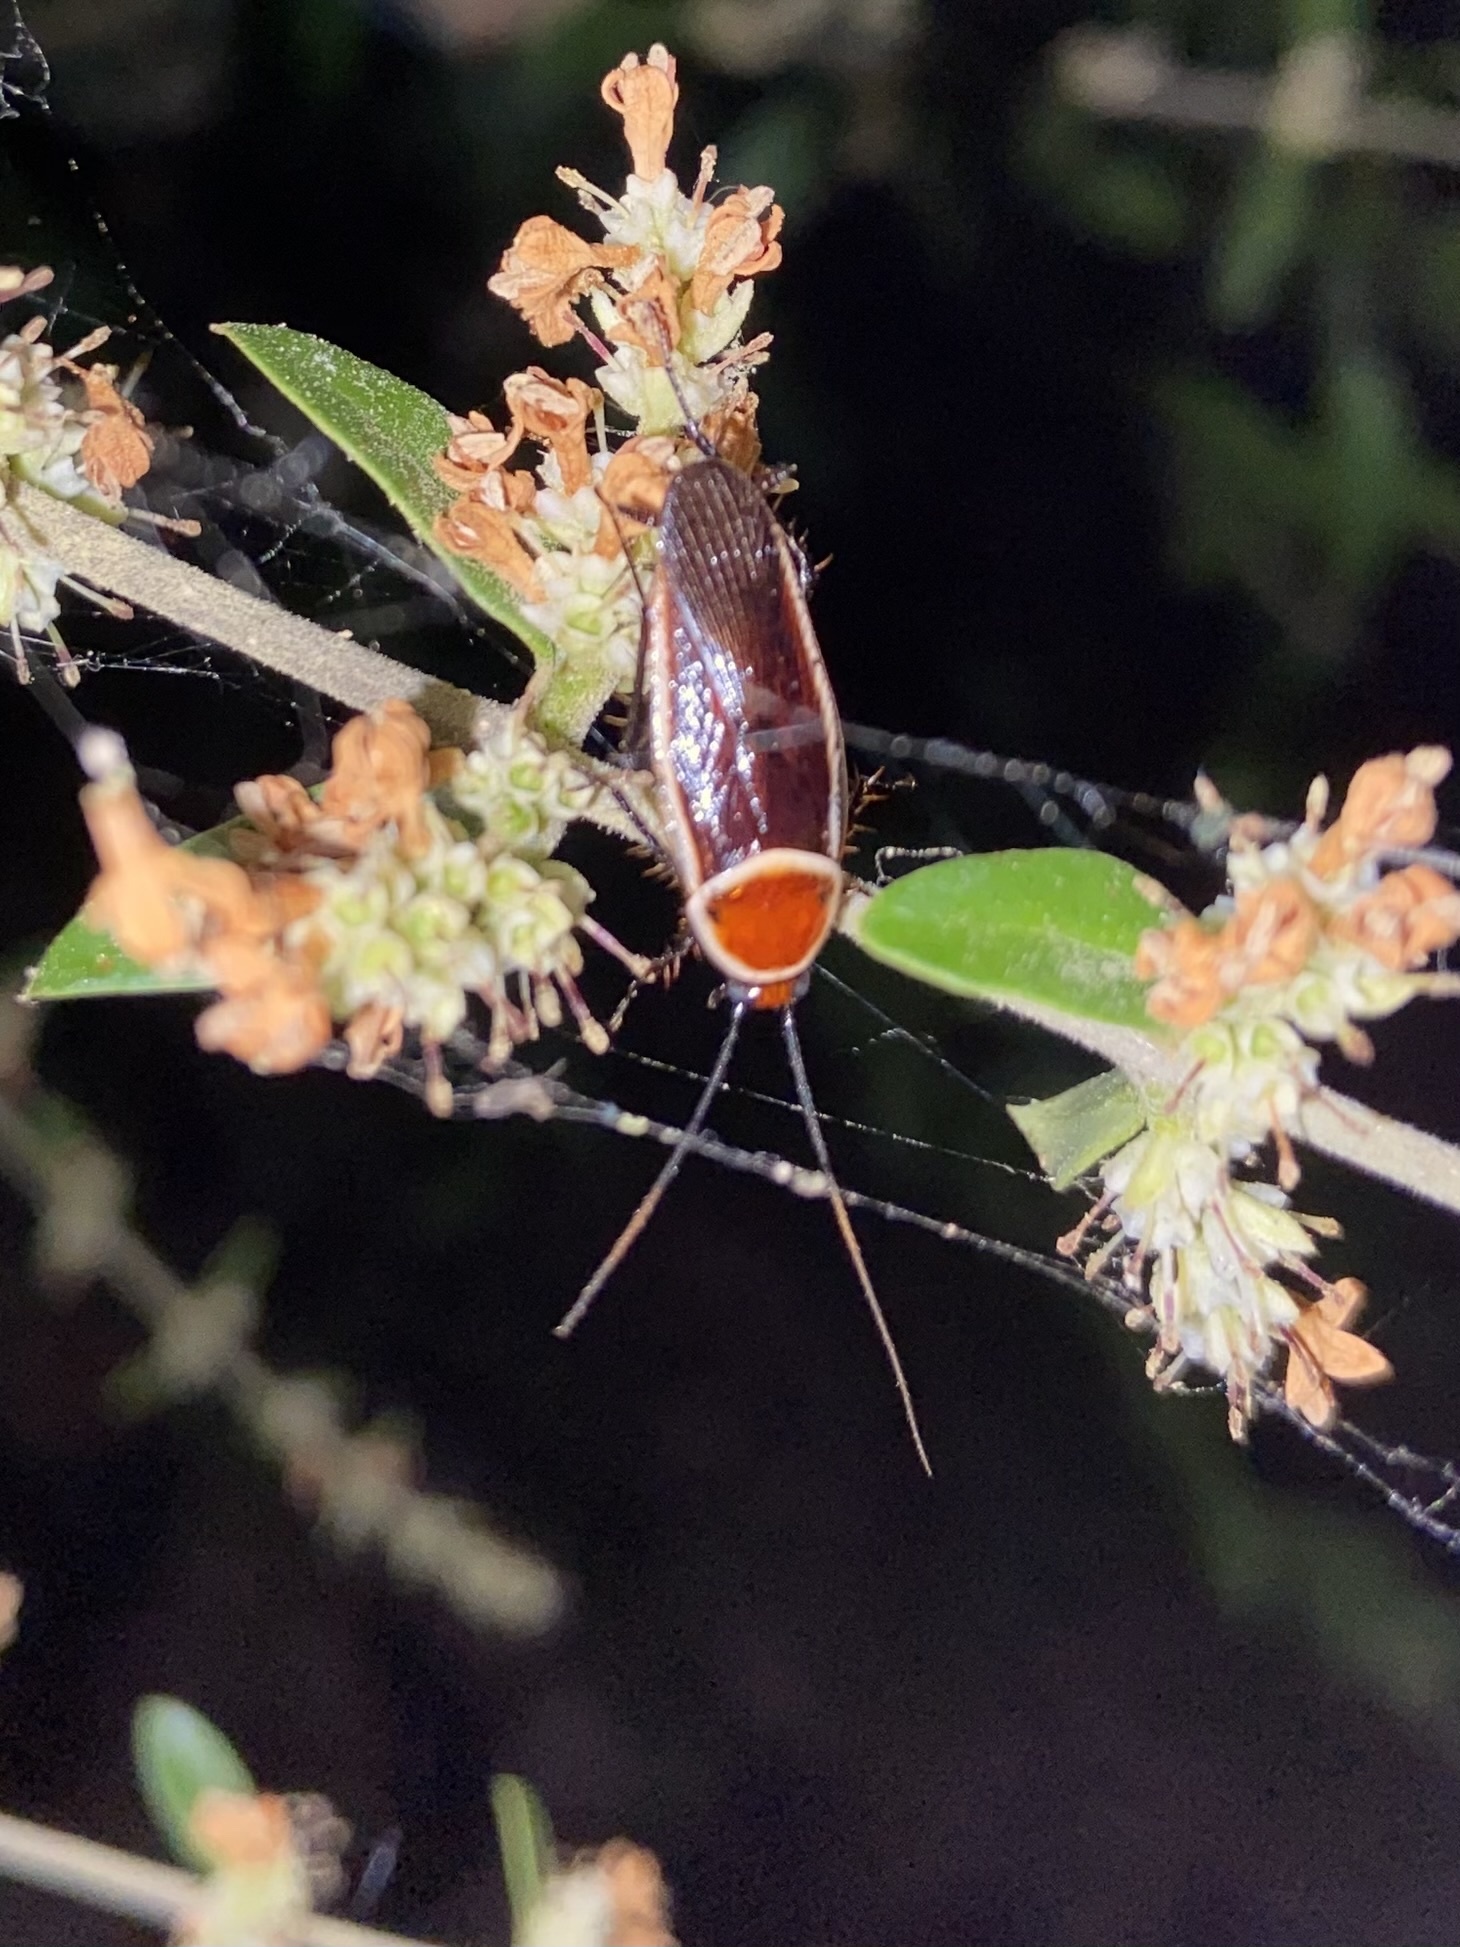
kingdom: Animalia
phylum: Arthropoda
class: Insecta
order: Blattodea
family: Ectobiidae
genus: Pseudomops
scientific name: Pseudomops septentrionalis
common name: Pale-bordered field cockroach
